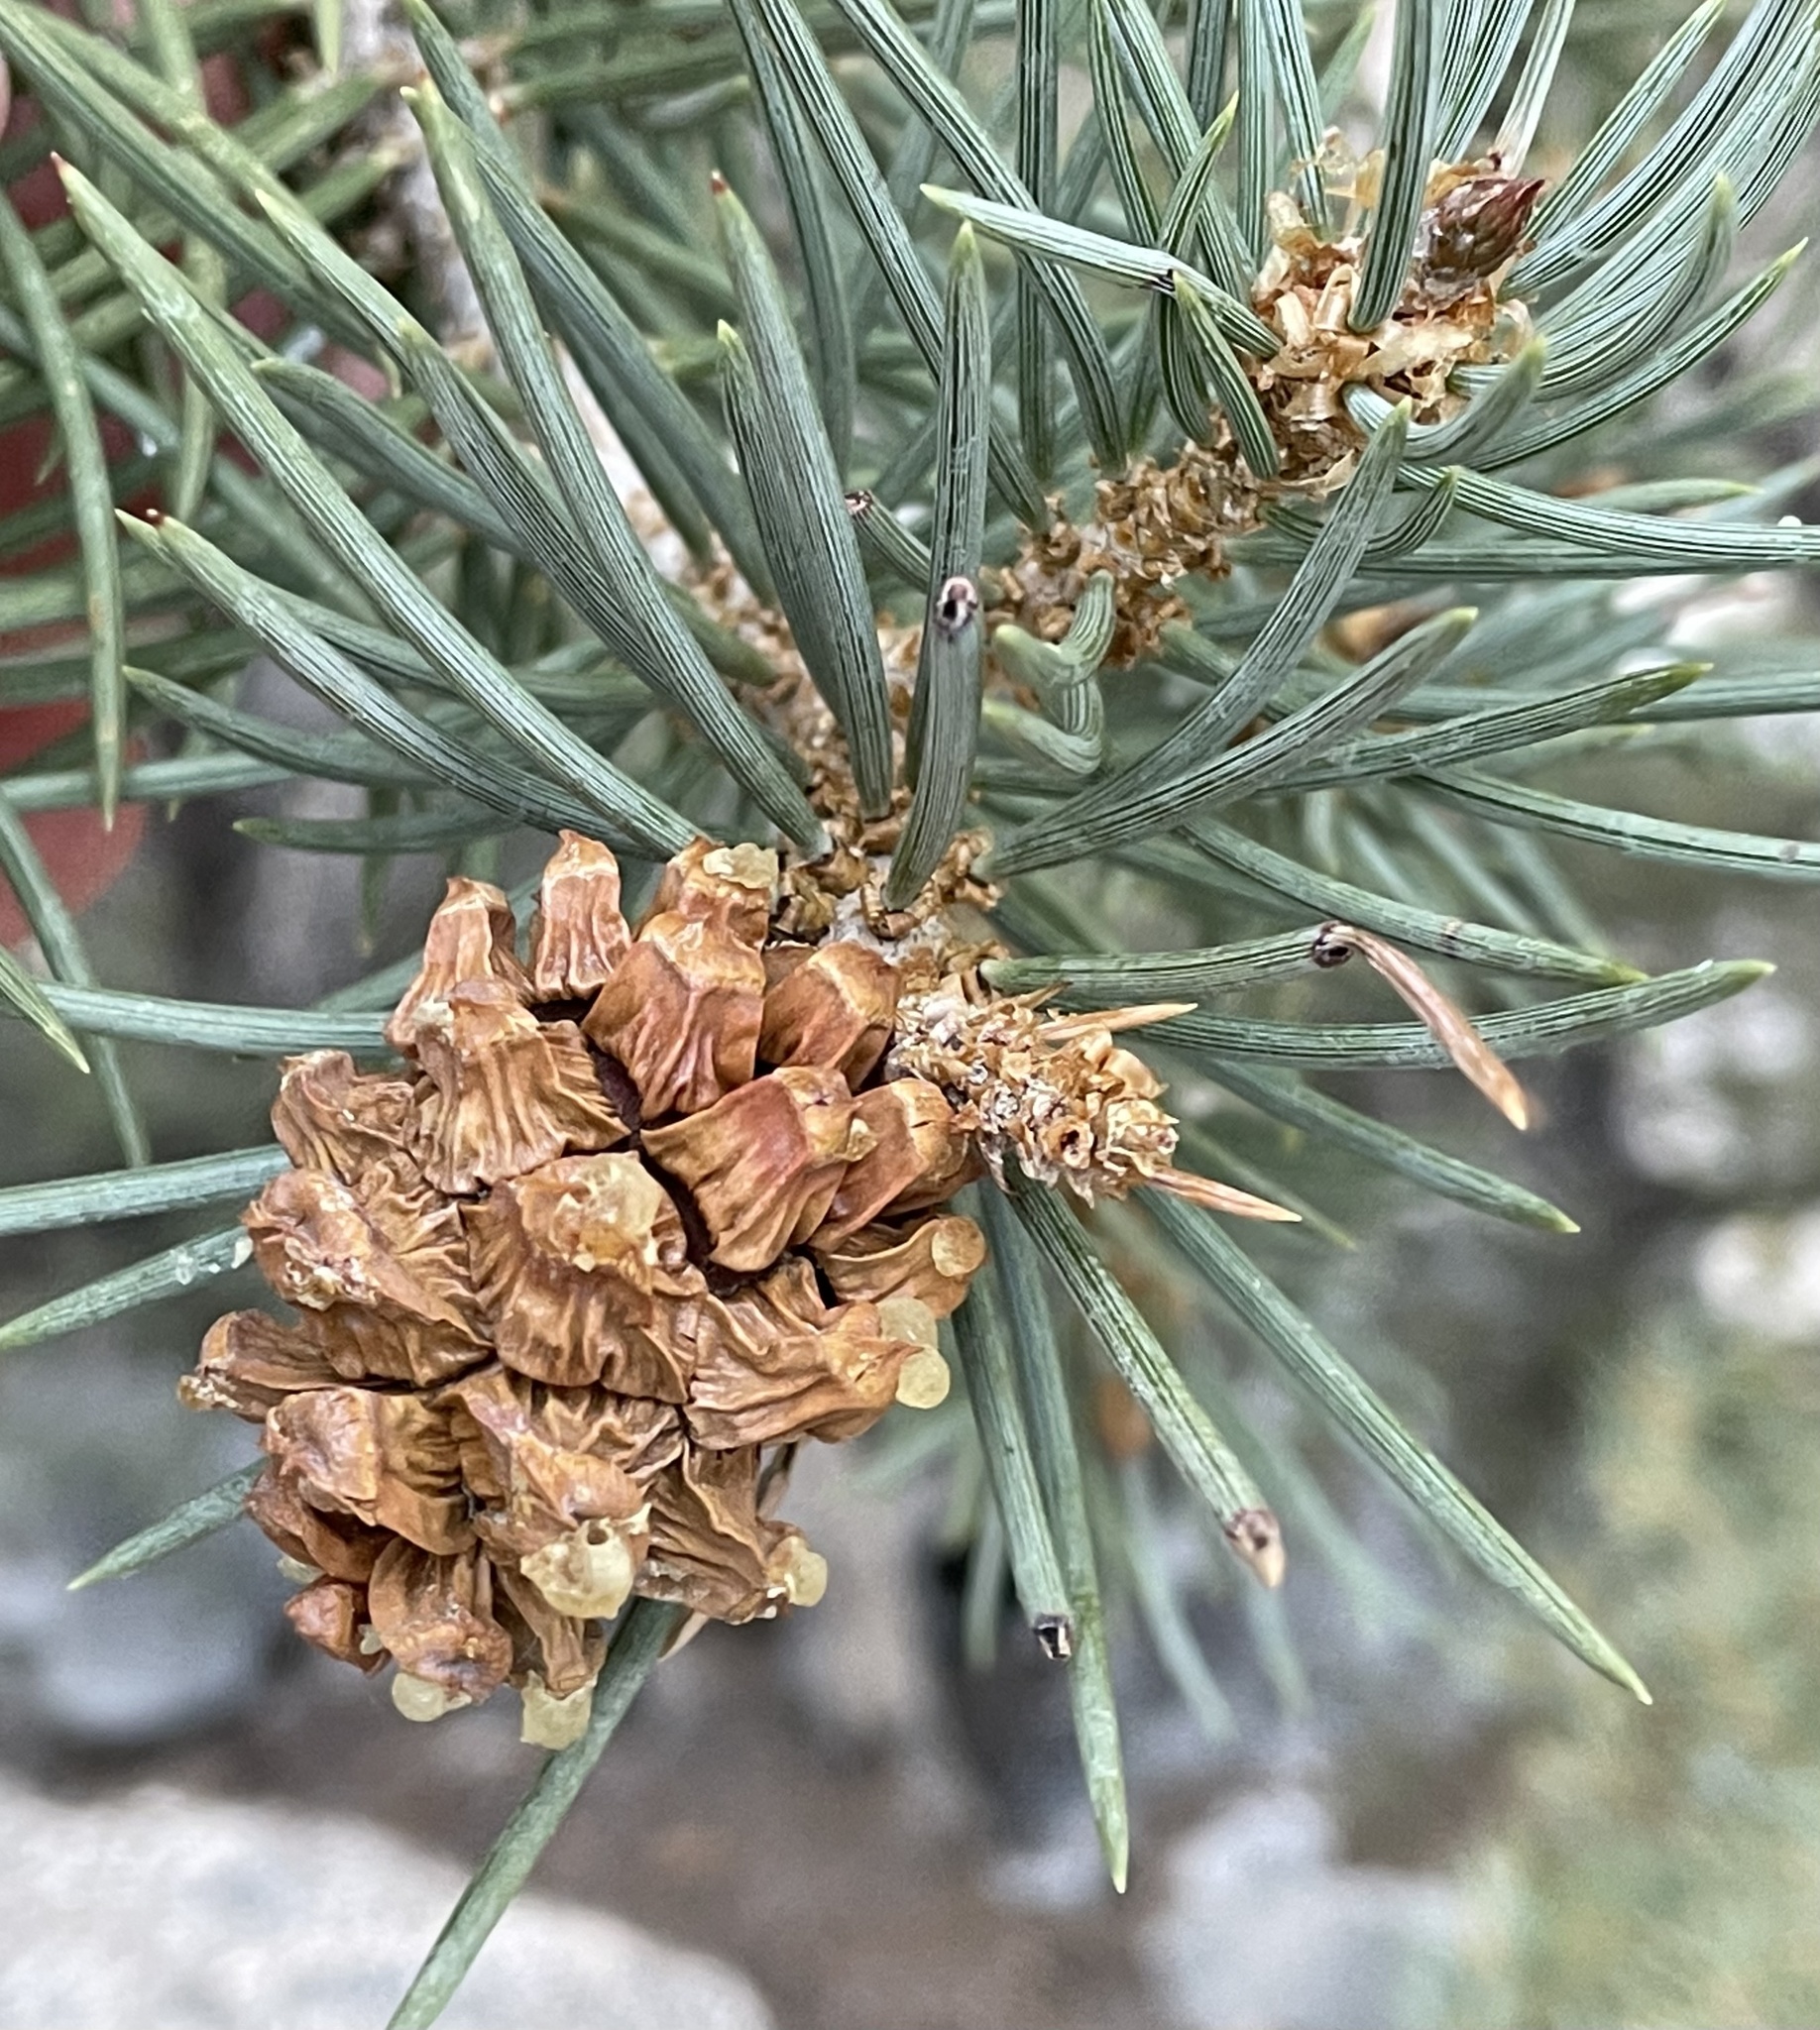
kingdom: Plantae
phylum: Tracheophyta
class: Pinopsida
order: Pinales
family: Pinaceae
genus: Pinus
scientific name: Pinus monophylla
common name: One-leaved nut pine
